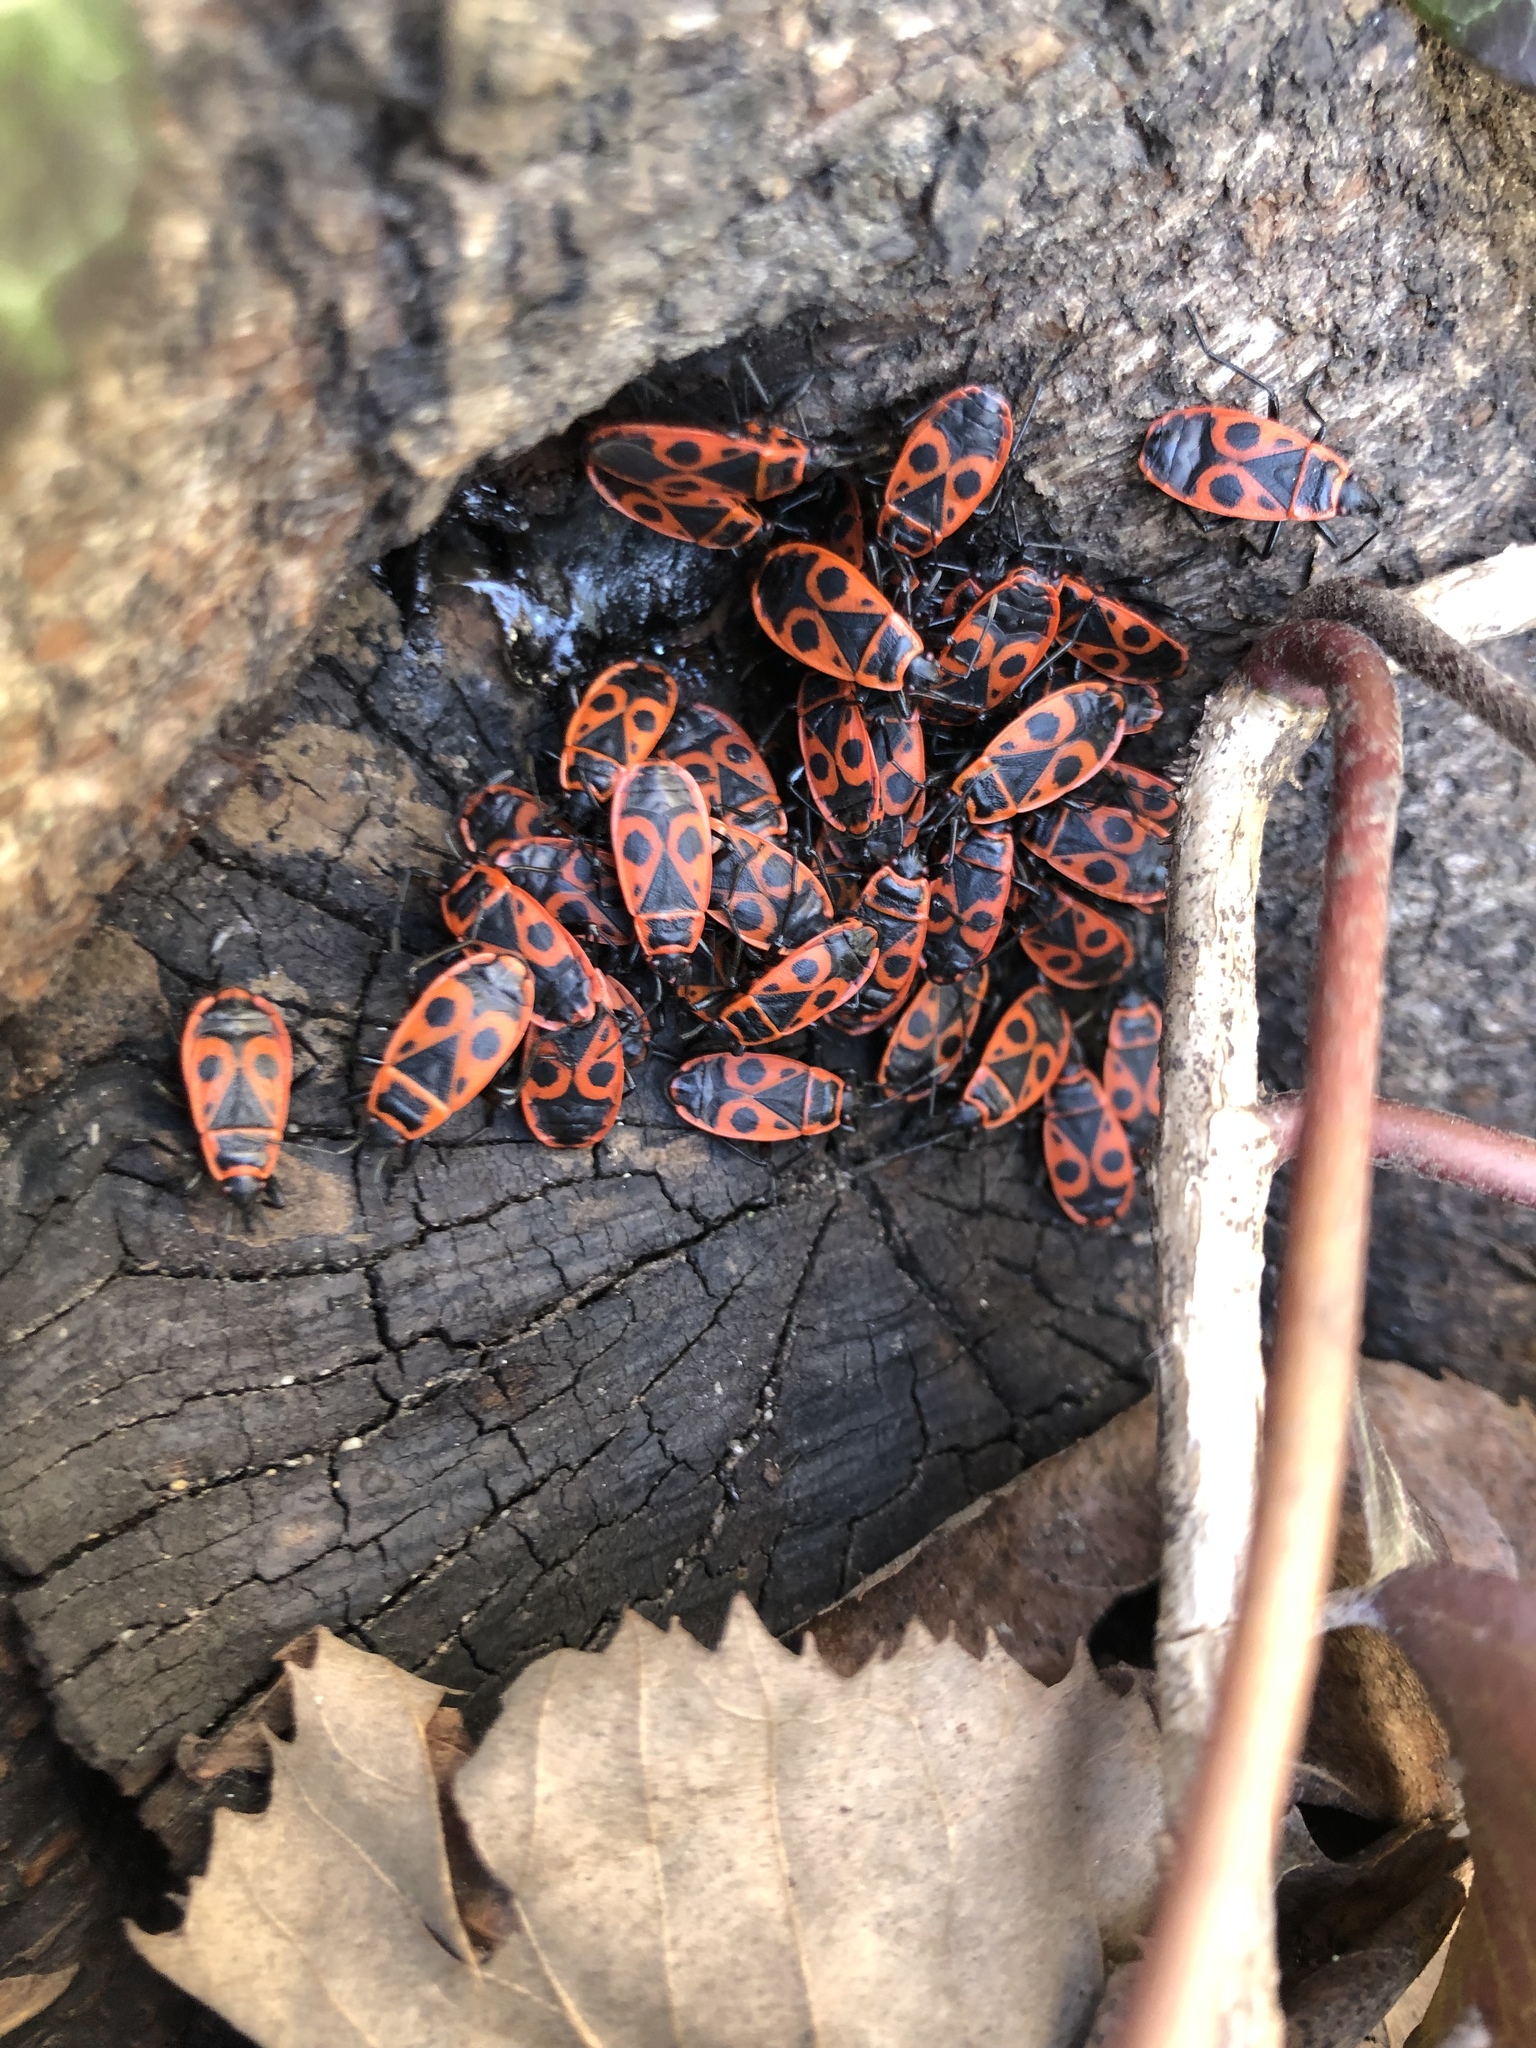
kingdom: Animalia
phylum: Arthropoda
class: Insecta
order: Hemiptera
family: Pyrrhocoridae
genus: Pyrrhocoris
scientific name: Pyrrhocoris apterus
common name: Firebug
